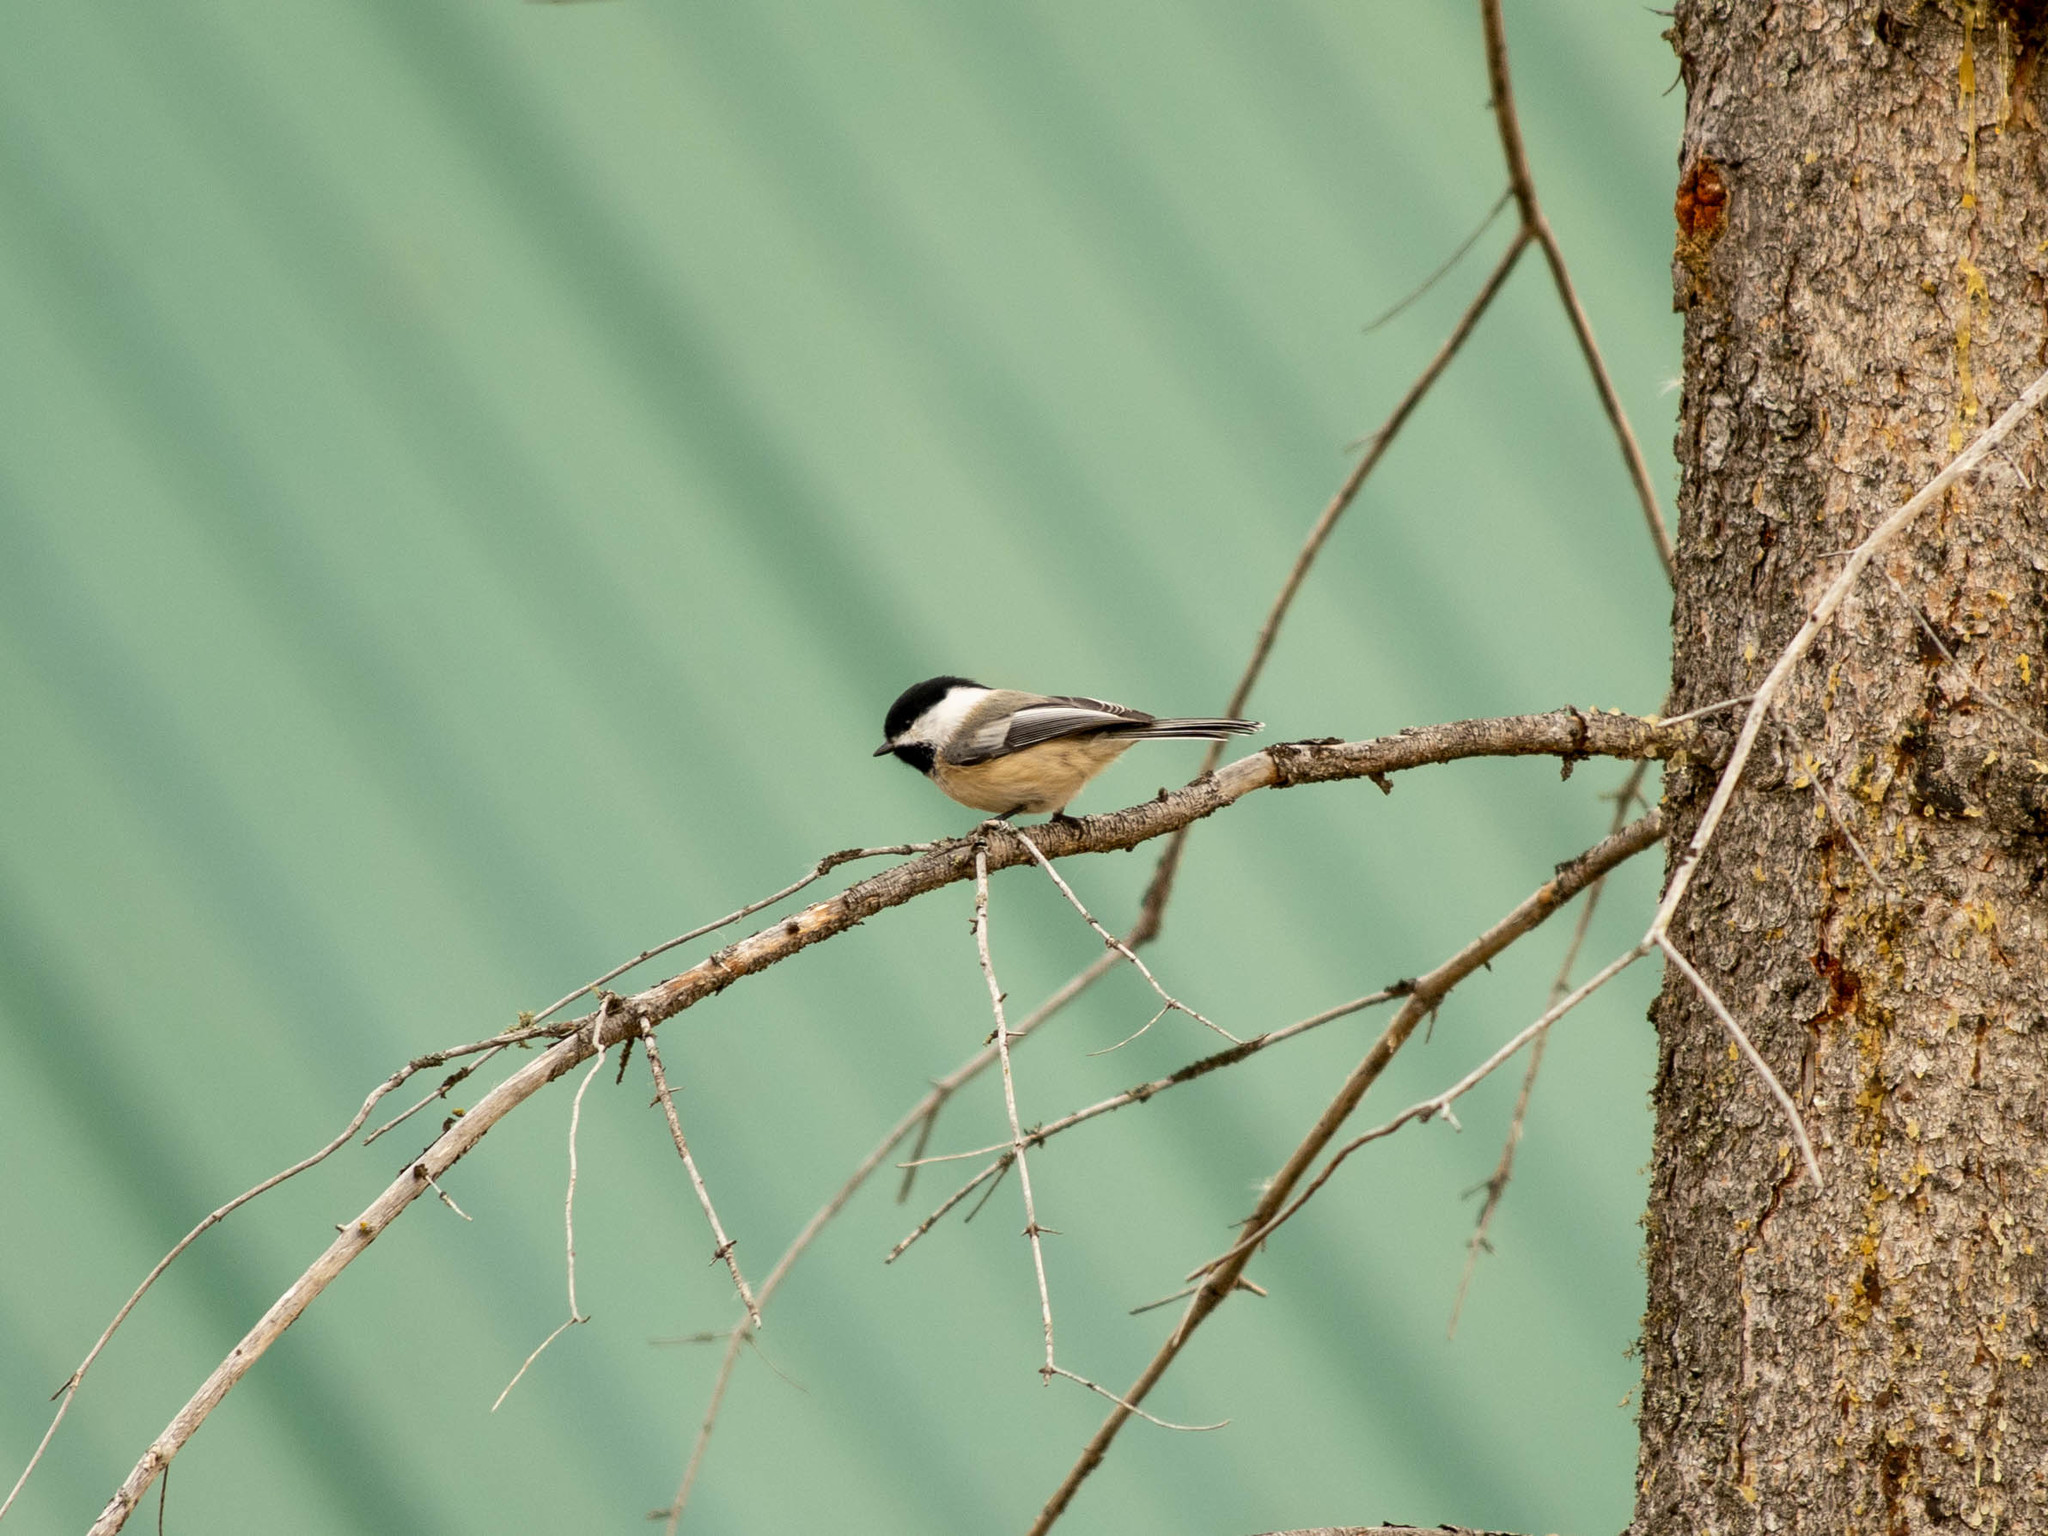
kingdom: Animalia
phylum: Chordata
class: Aves
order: Passeriformes
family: Paridae
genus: Poecile
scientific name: Poecile atricapillus
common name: Black-capped chickadee
